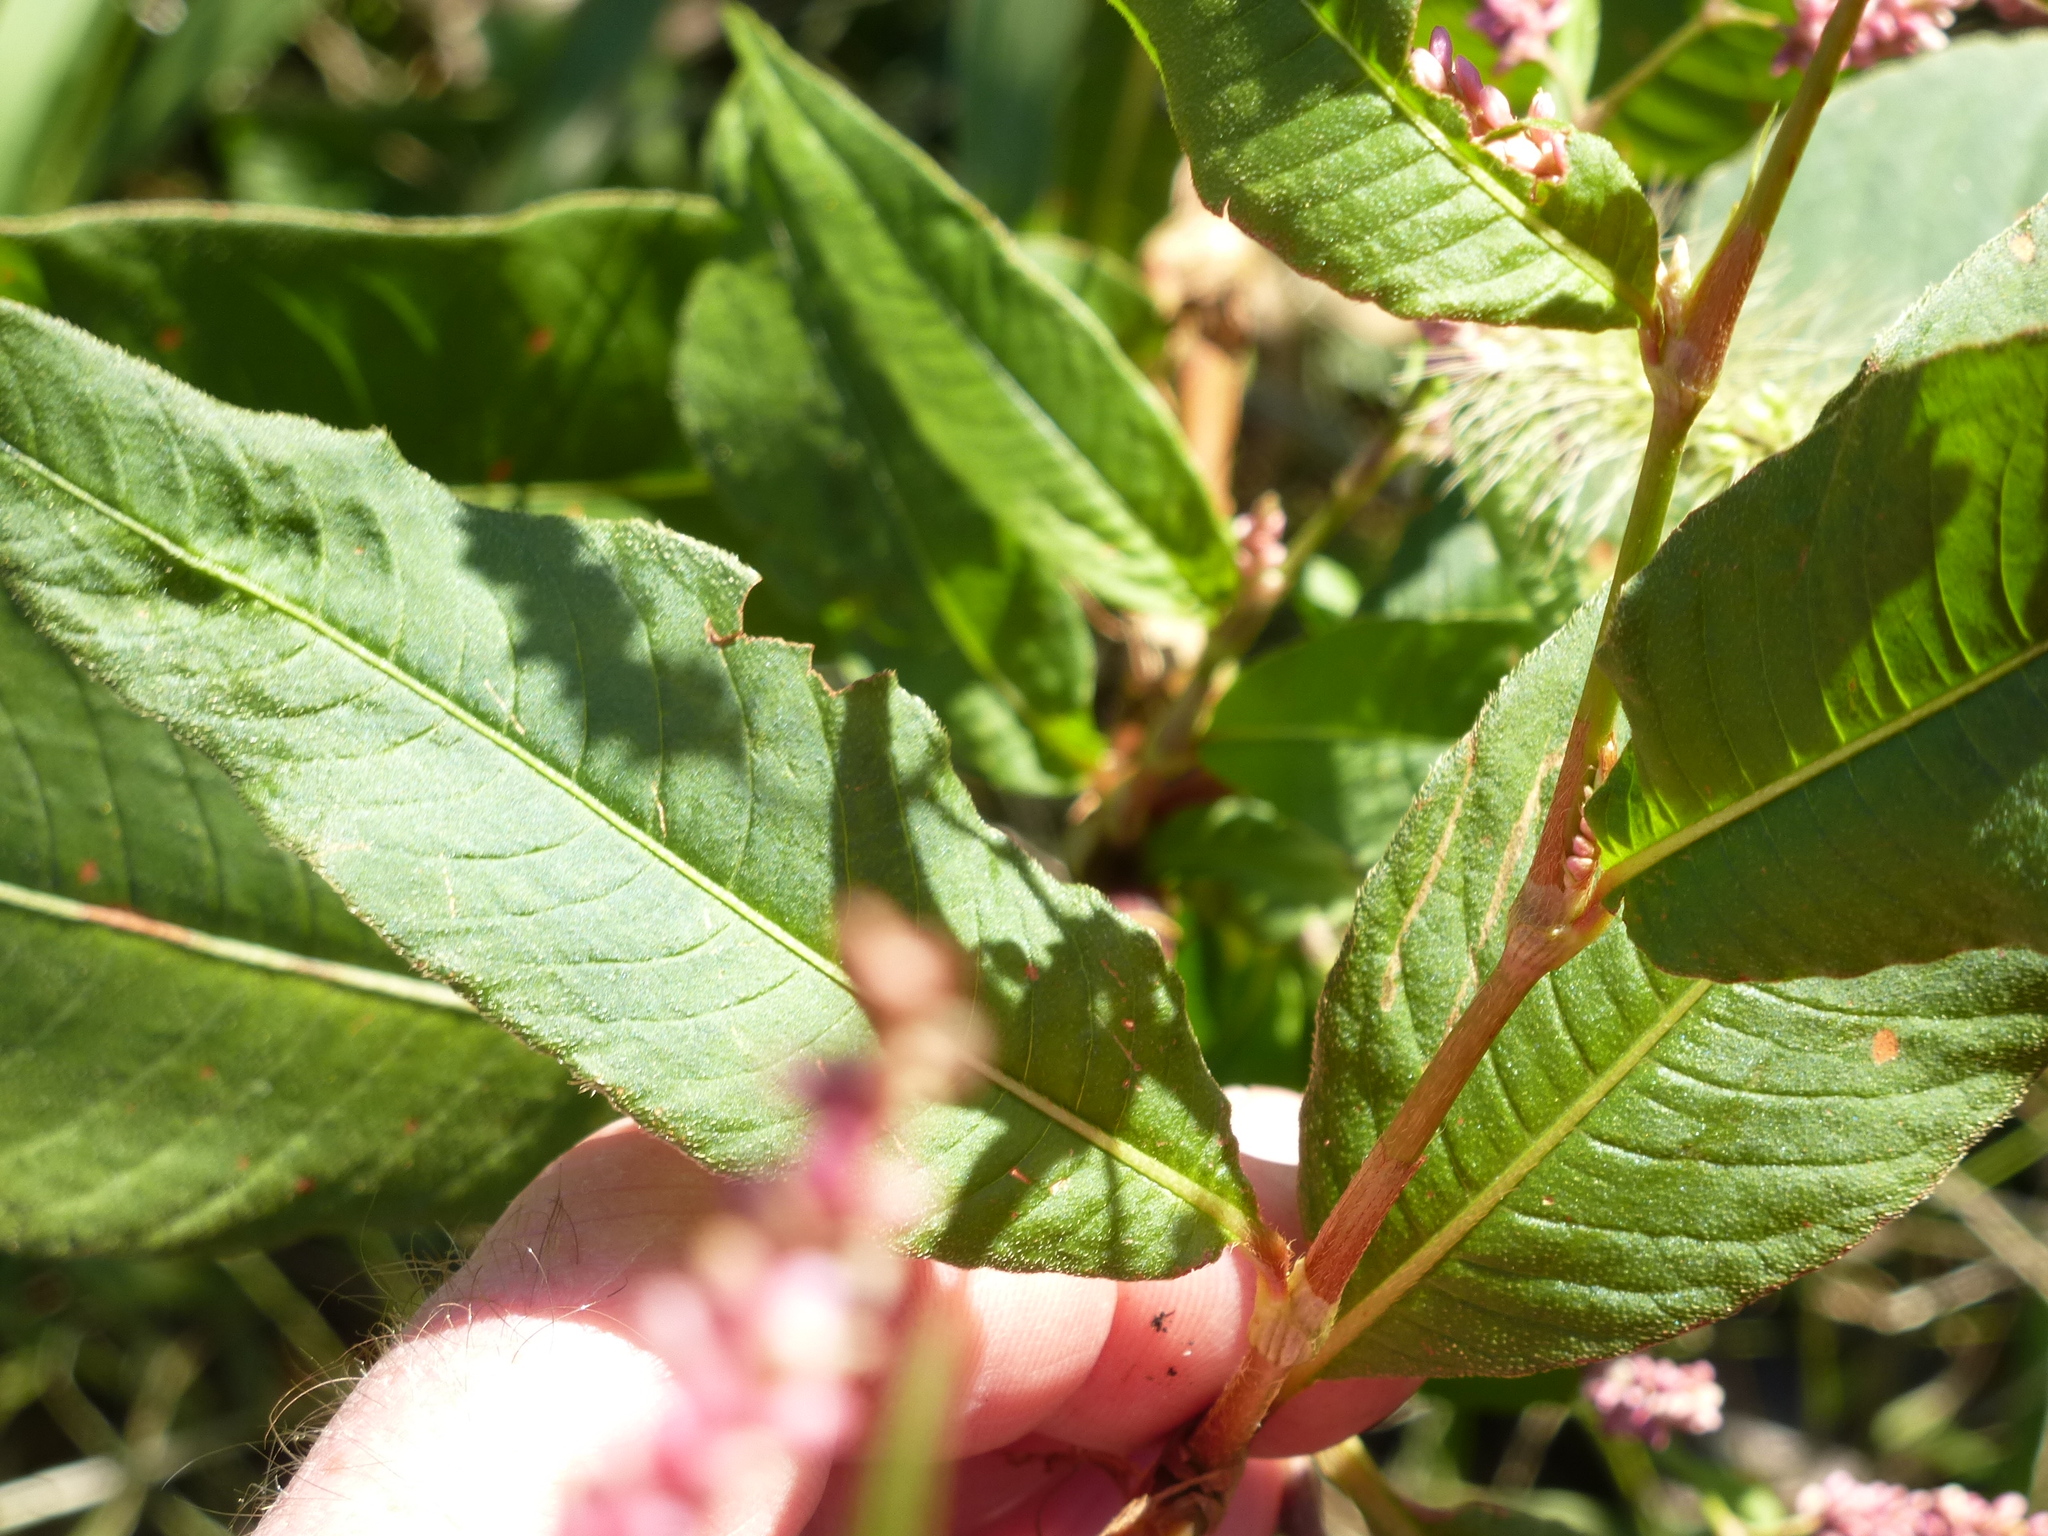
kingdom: Plantae
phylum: Tracheophyta
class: Magnoliopsida
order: Caryophyllales
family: Polygonaceae
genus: Persicaria
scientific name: Persicaria extremiorientalis
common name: Far-eastern smartweed
